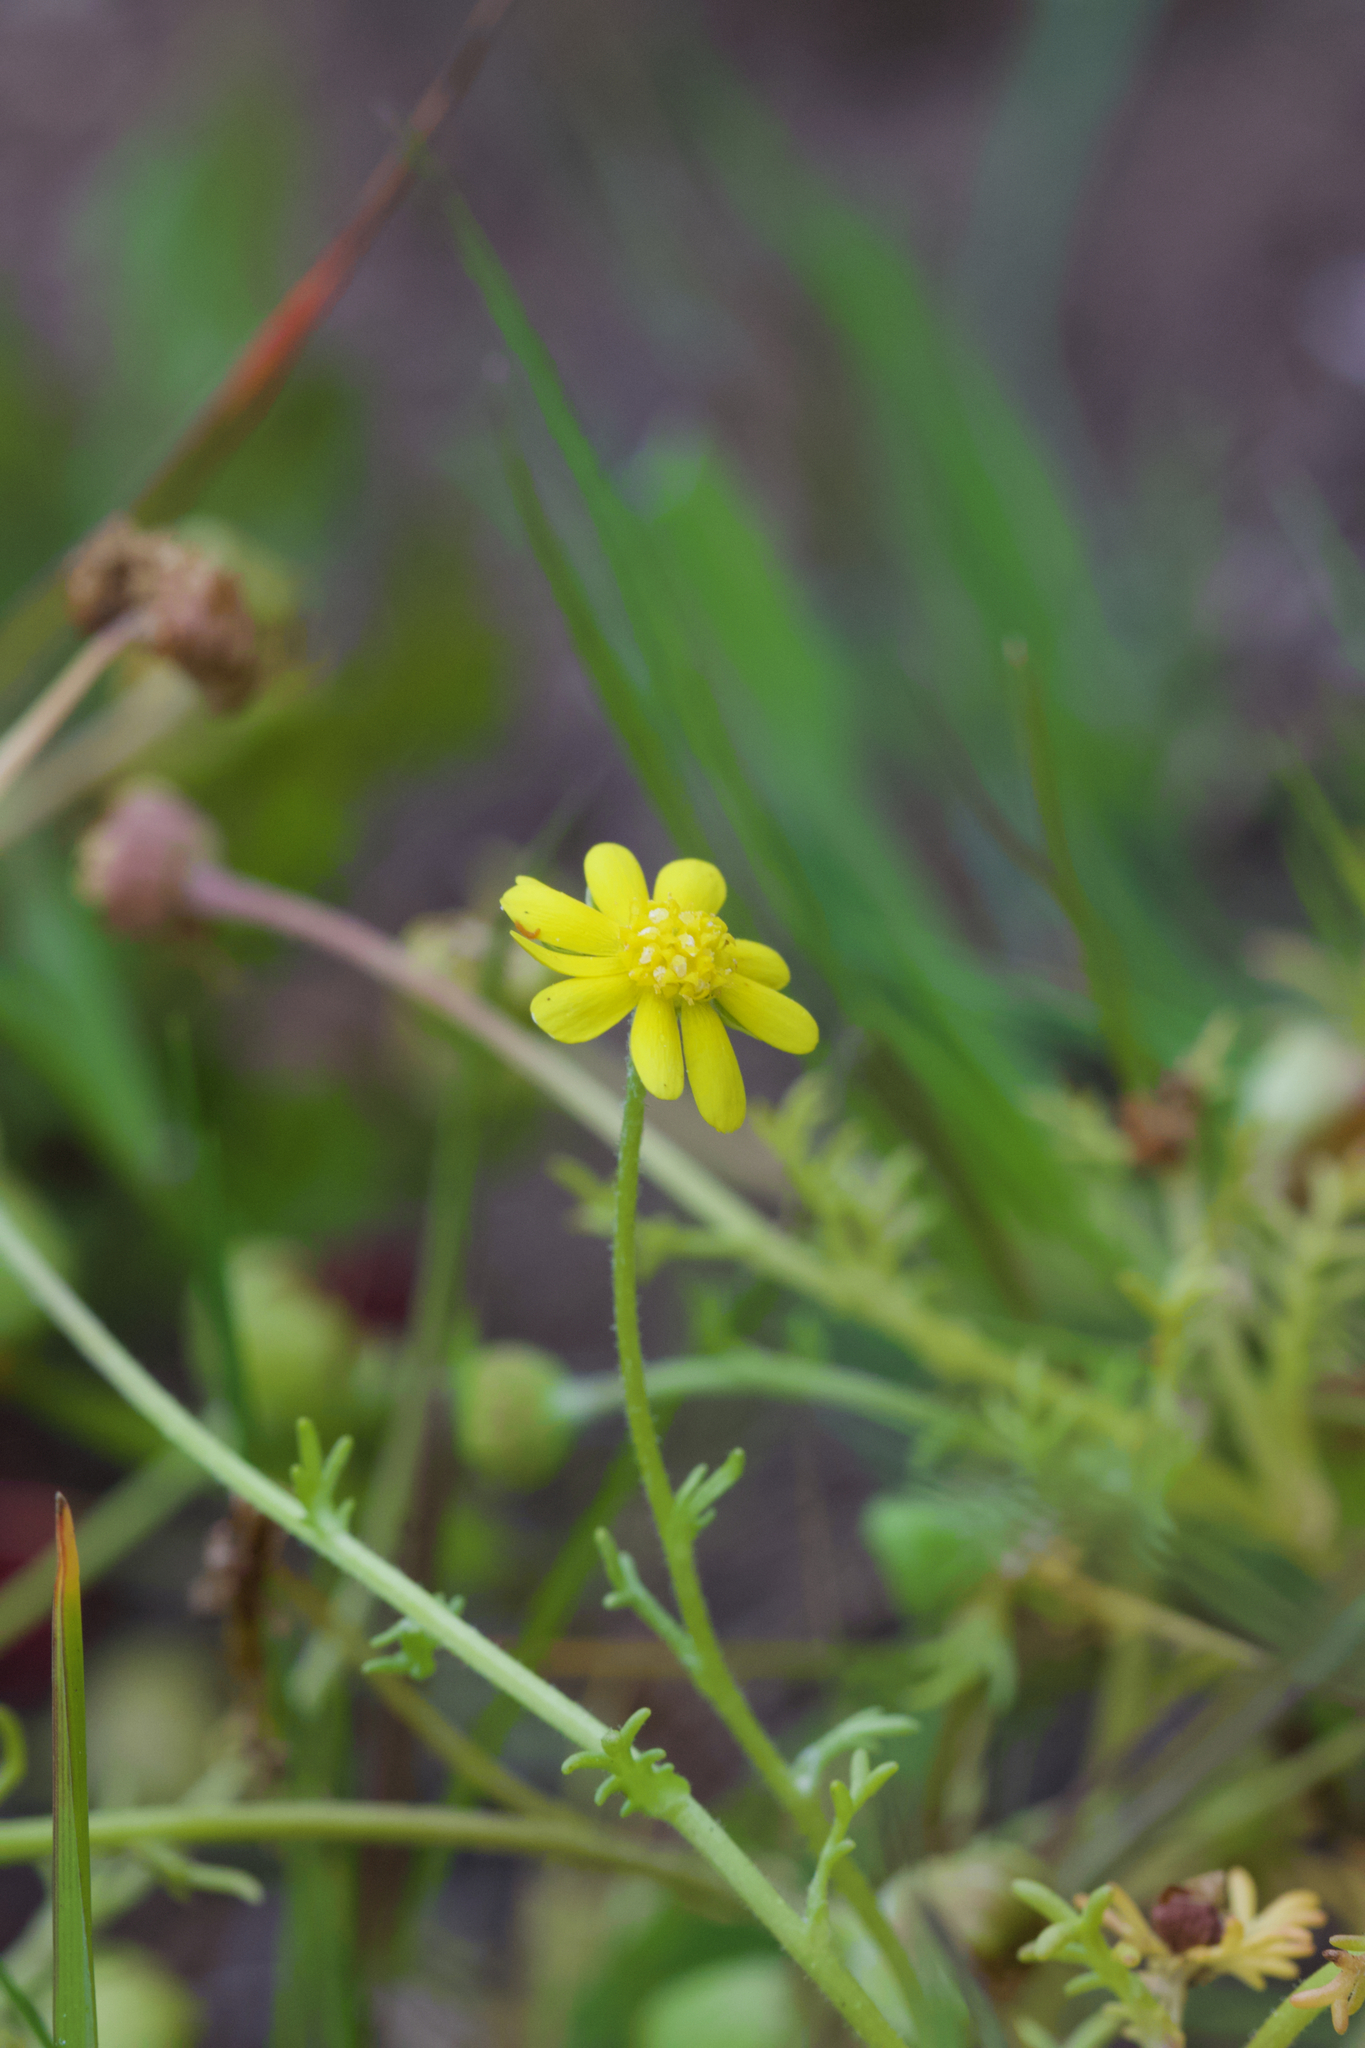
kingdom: Plantae
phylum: Tracheophyta
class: Magnoliopsida
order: Asterales
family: Asteraceae
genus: Blennosperma
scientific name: Blennosperma nanum
